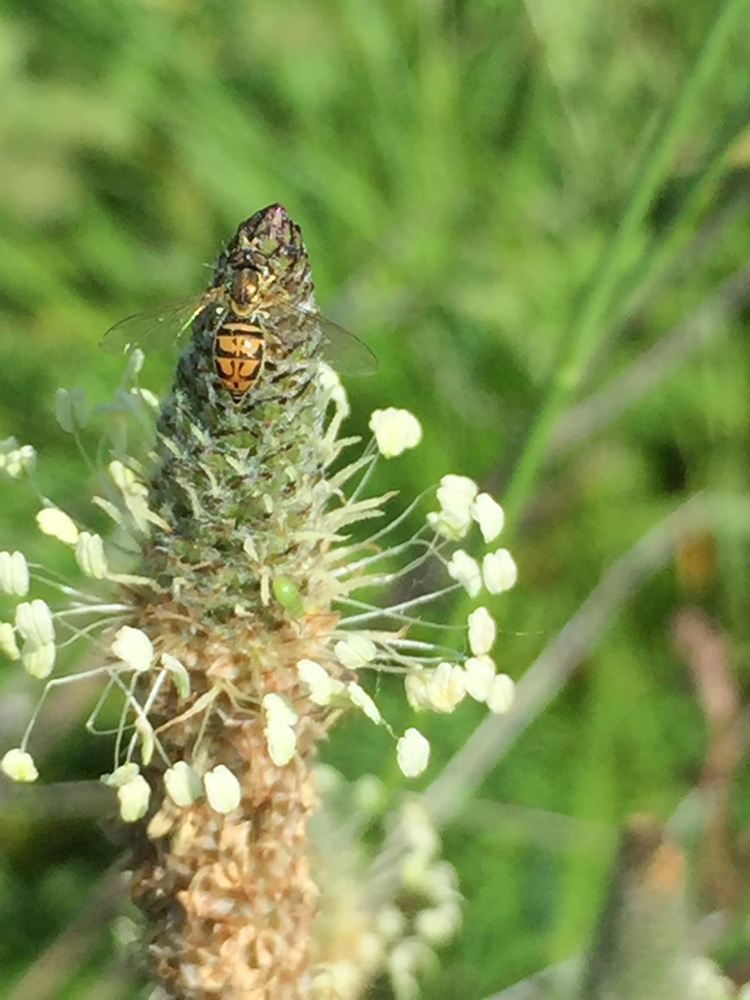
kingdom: Animalia
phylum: Arthropoda
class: Insecta
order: Diptera
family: Syrphidae
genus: Toxomerus
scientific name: Toxomerus marginatus
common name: Syrphid fly
